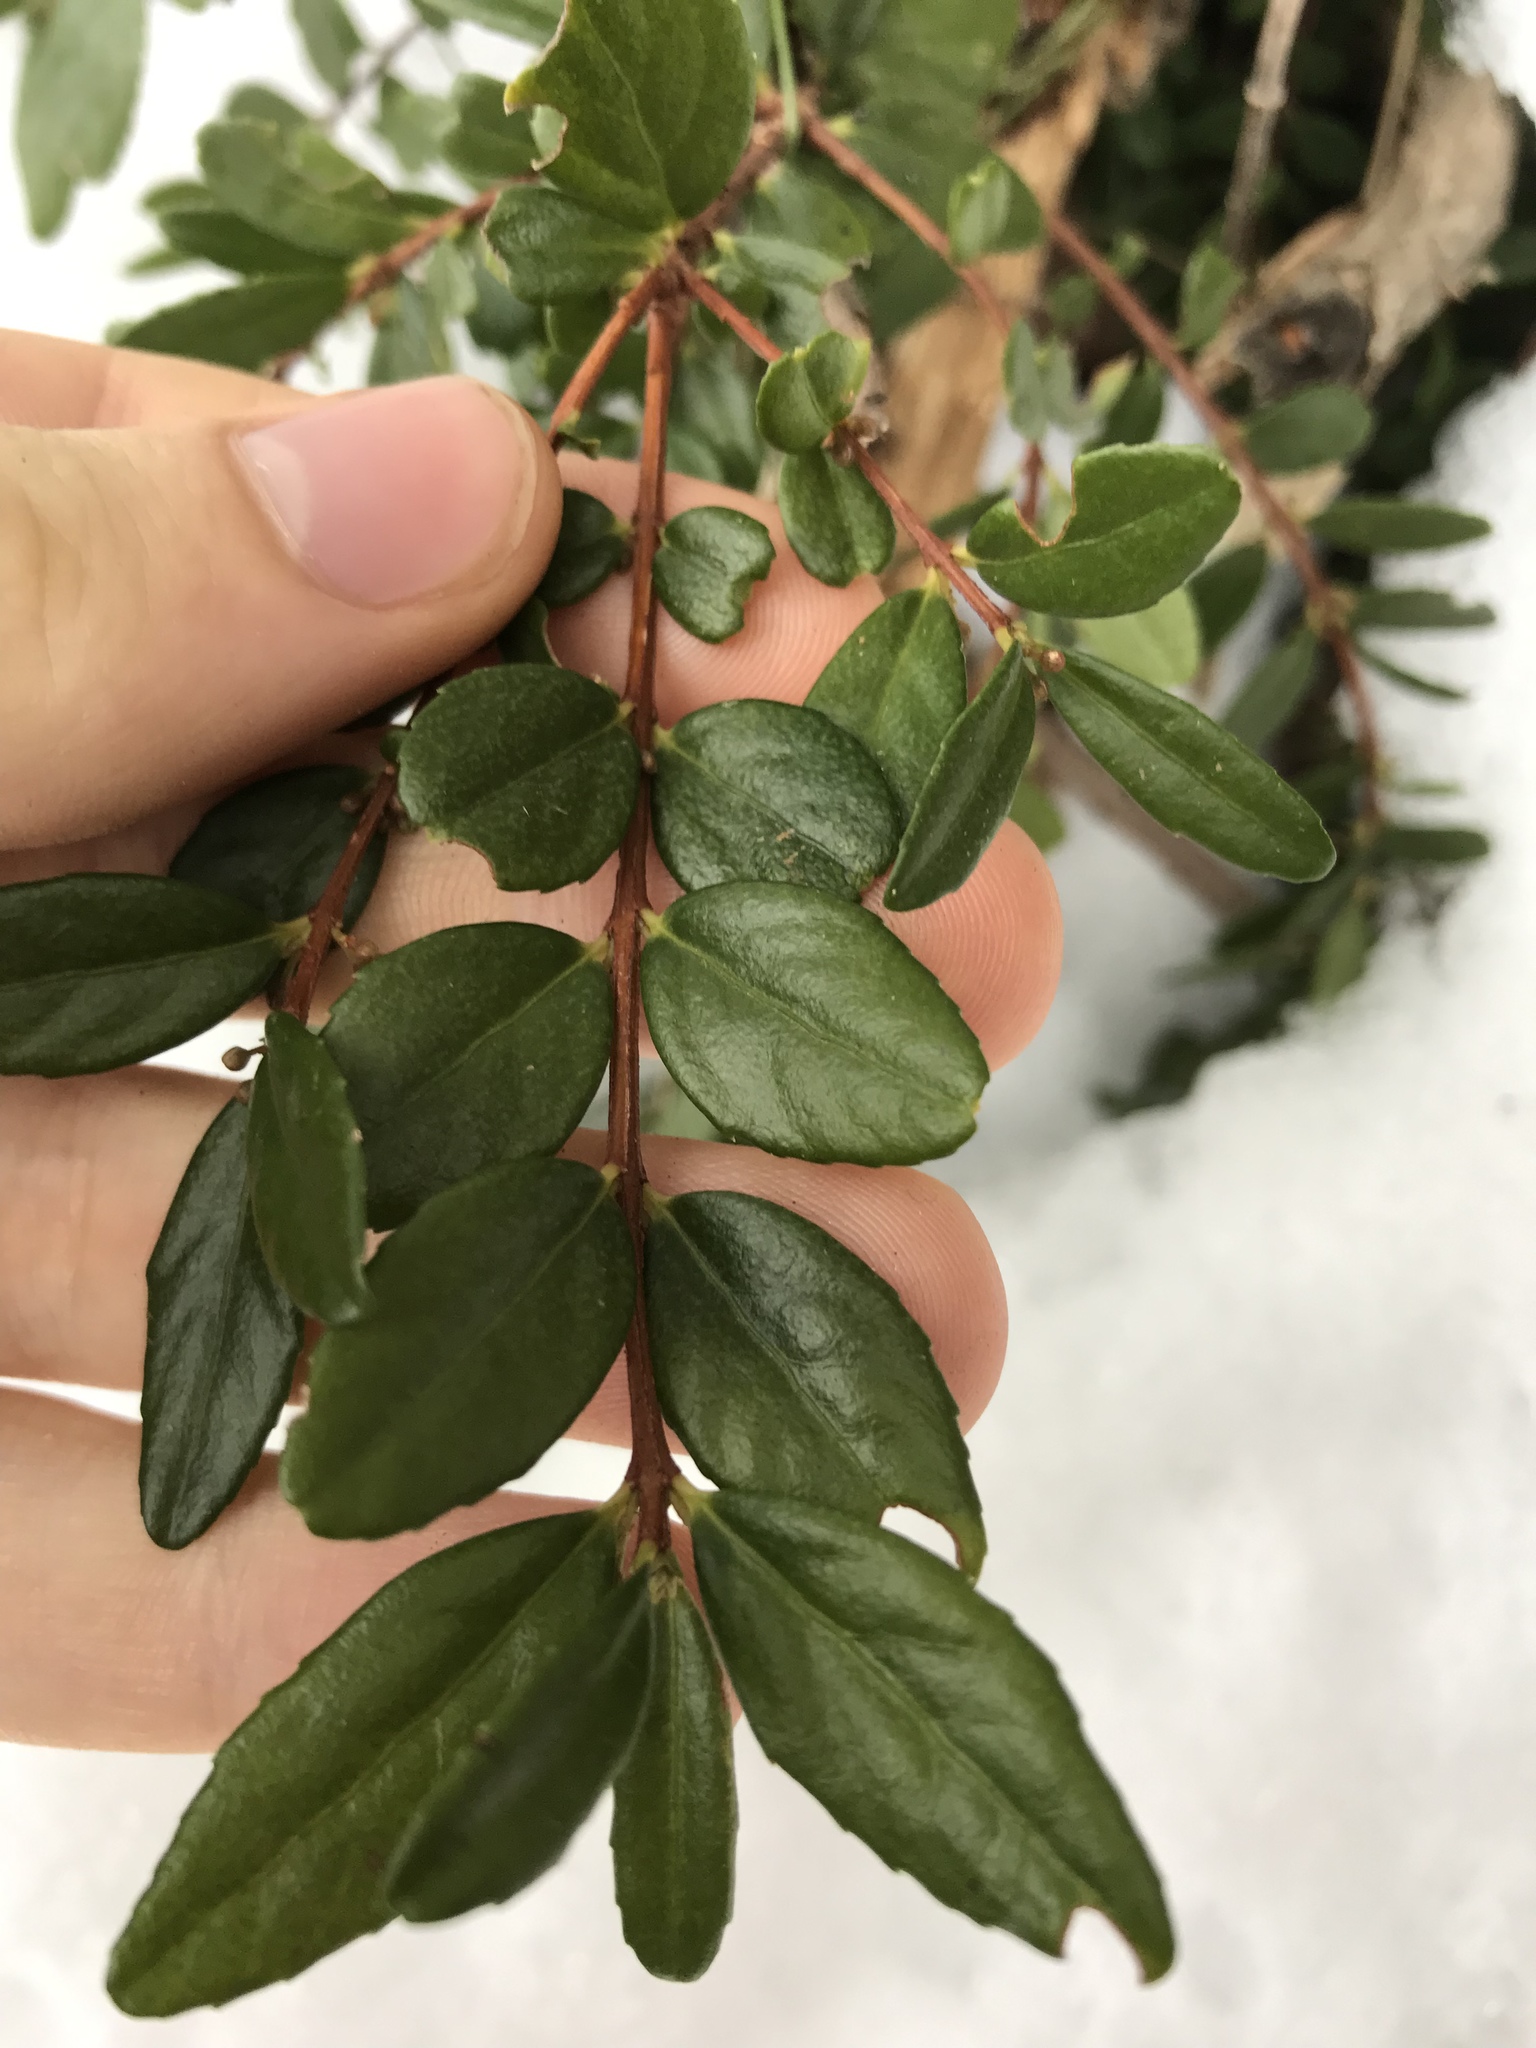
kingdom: Plantae
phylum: Tracheophyta
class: Magnoliopsida
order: Celastrales
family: Celastraceae
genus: Paxistima
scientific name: Paxistima myrsinites
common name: Mountain-lover
